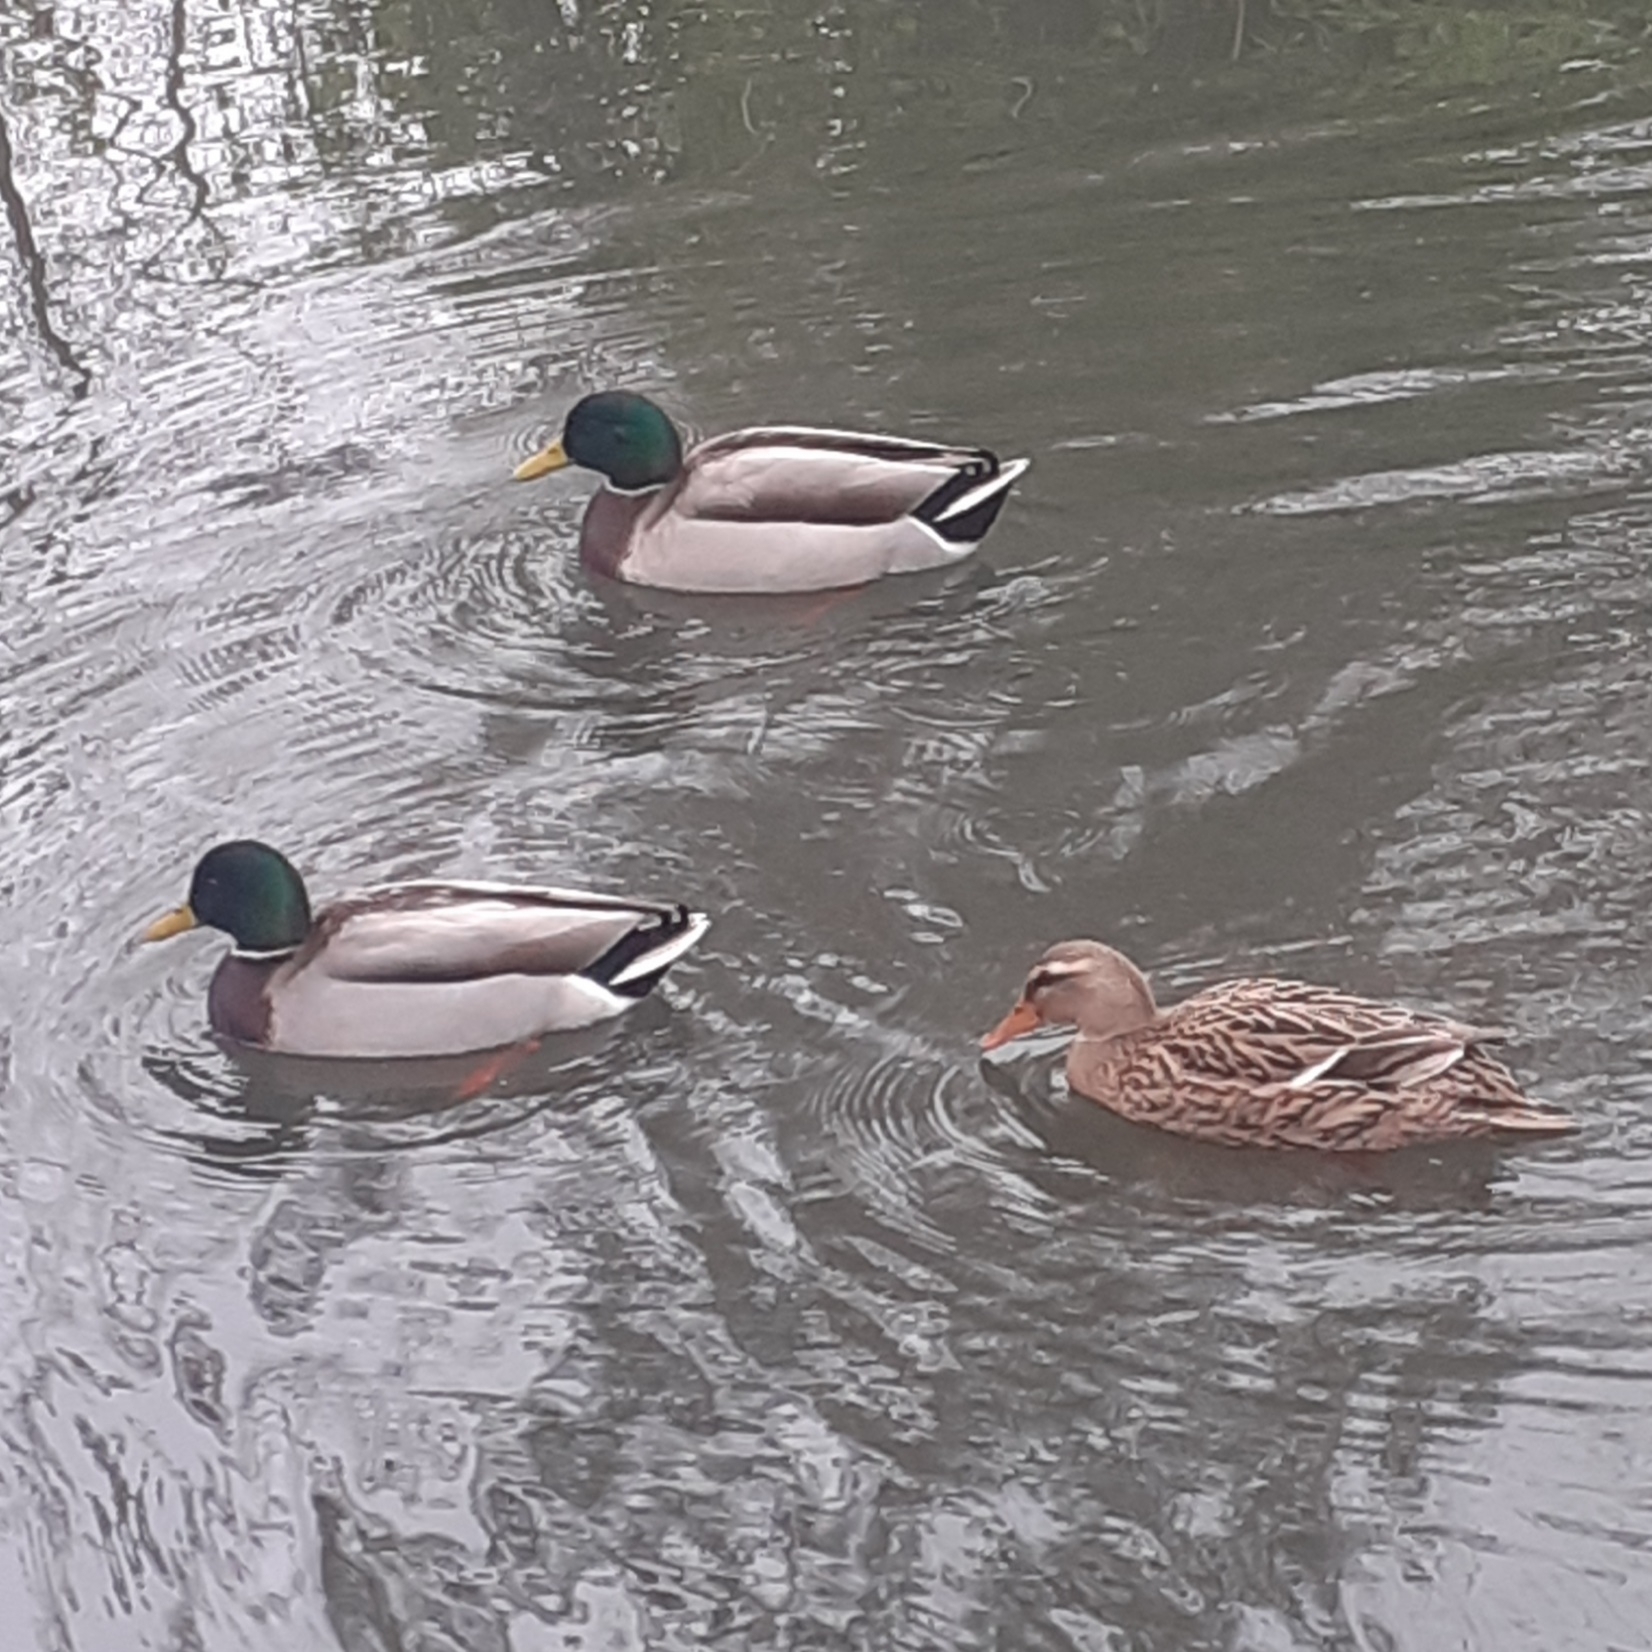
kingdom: Animalia
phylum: Chordata
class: Aves
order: Anseriformes
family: Anatidae
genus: Anas
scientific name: Anas platyrhynchos
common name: Mallard
